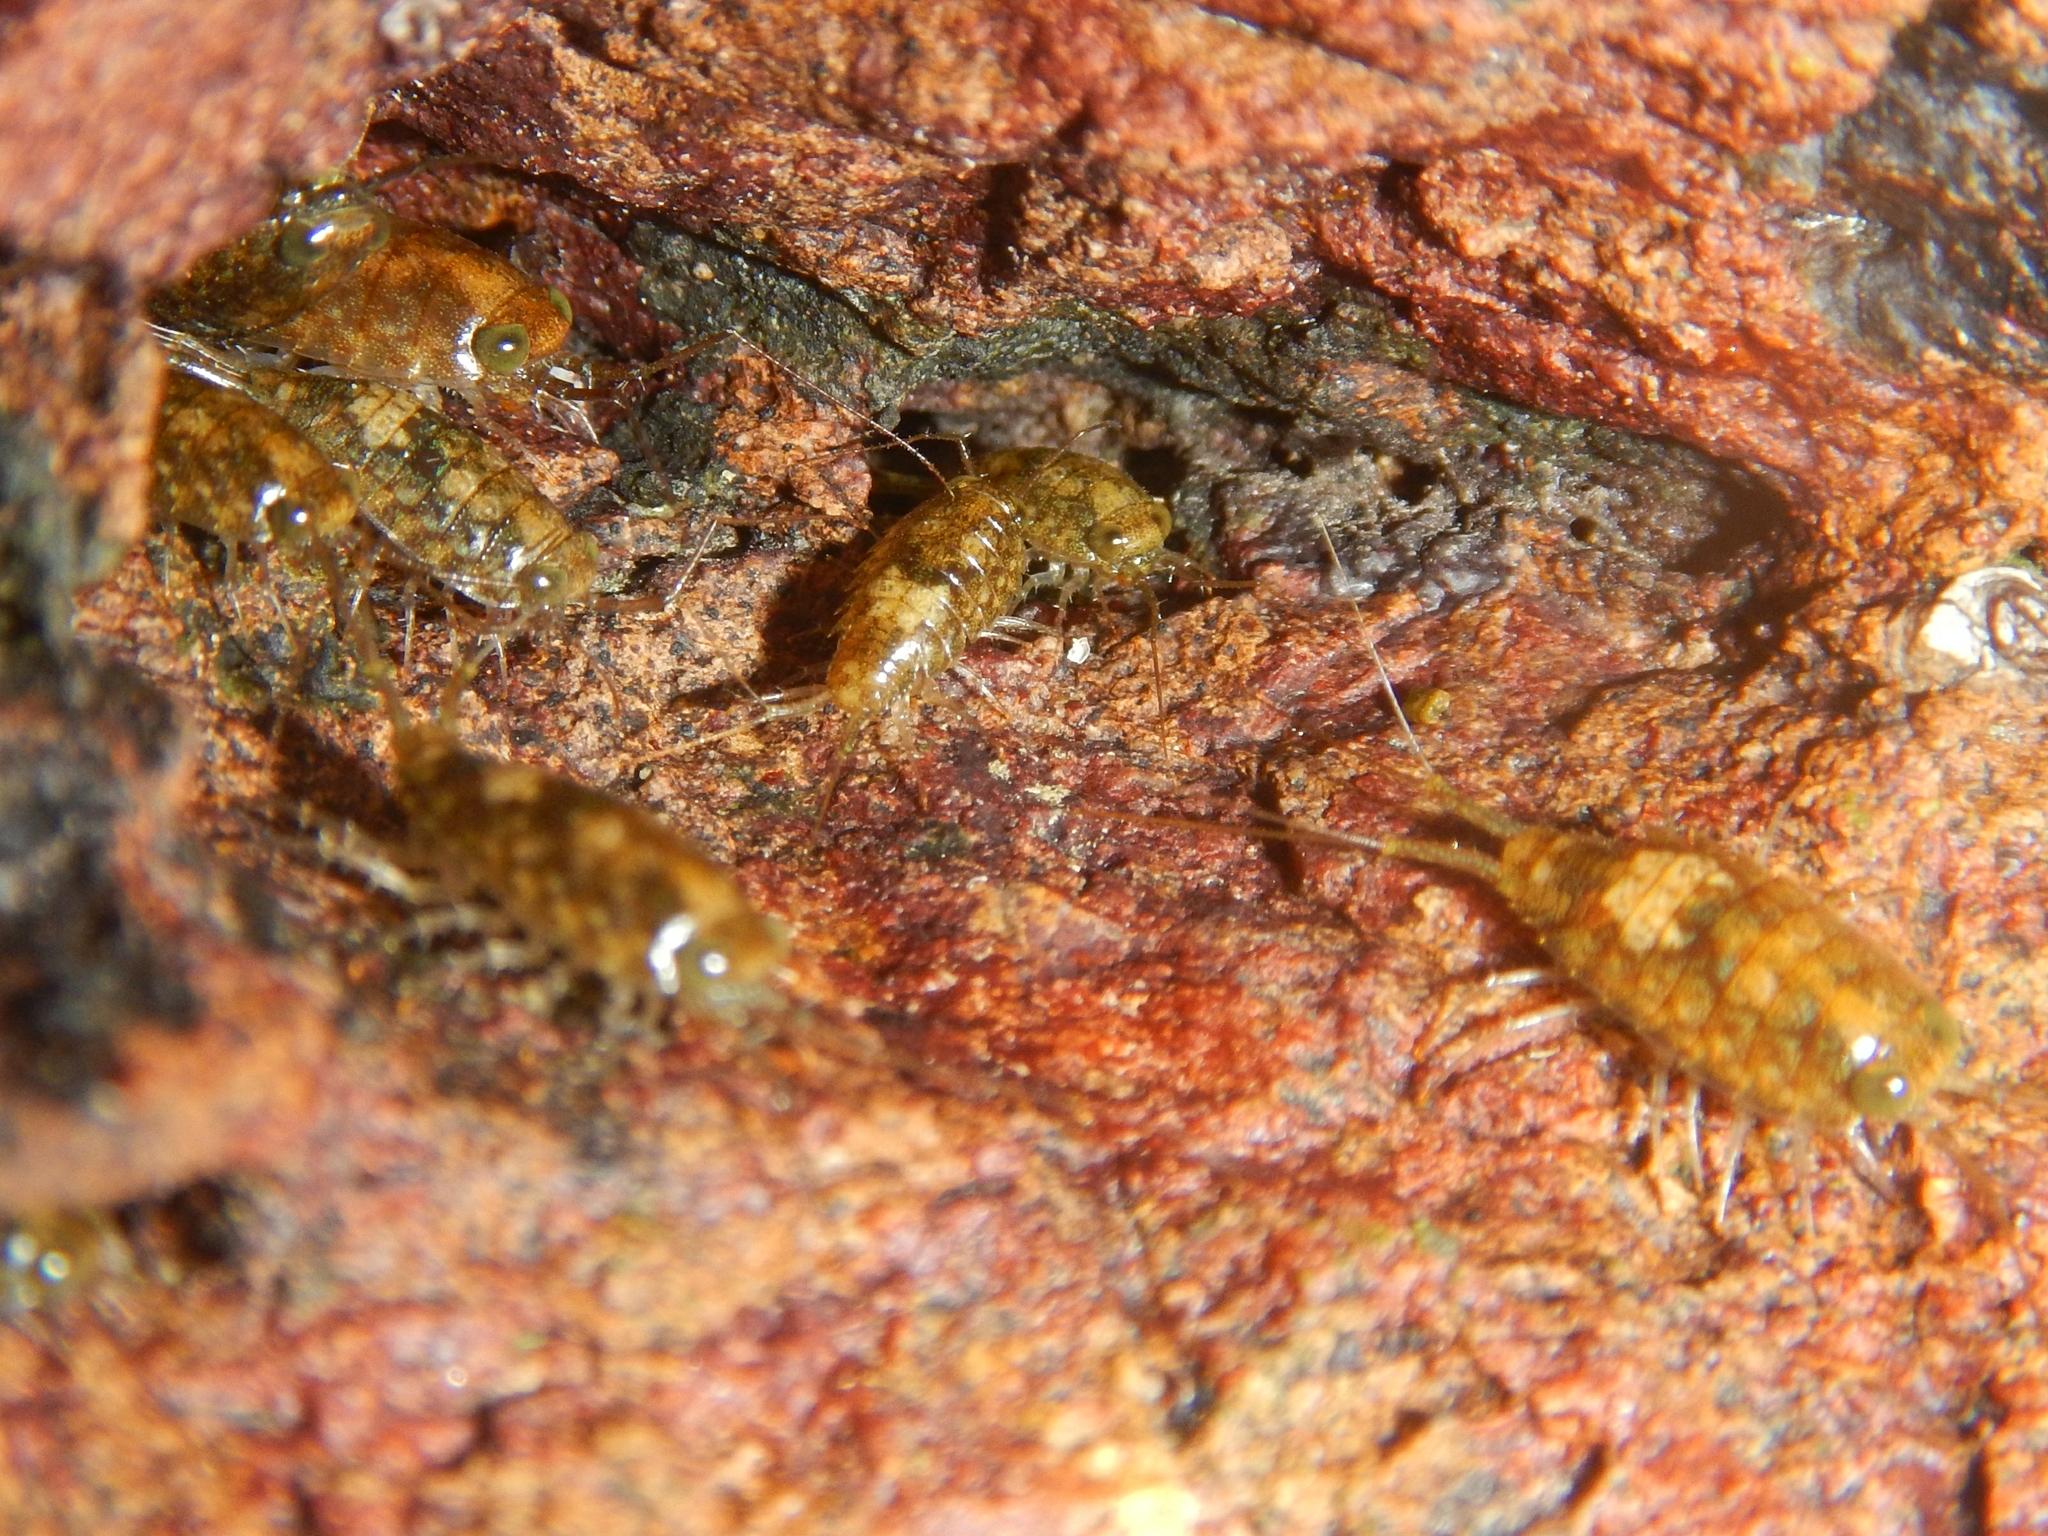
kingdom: Animalia
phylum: Arthropoda
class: Malacostraca
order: Isopoda
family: Ligiidae
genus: Ligia
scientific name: Ligia italica
